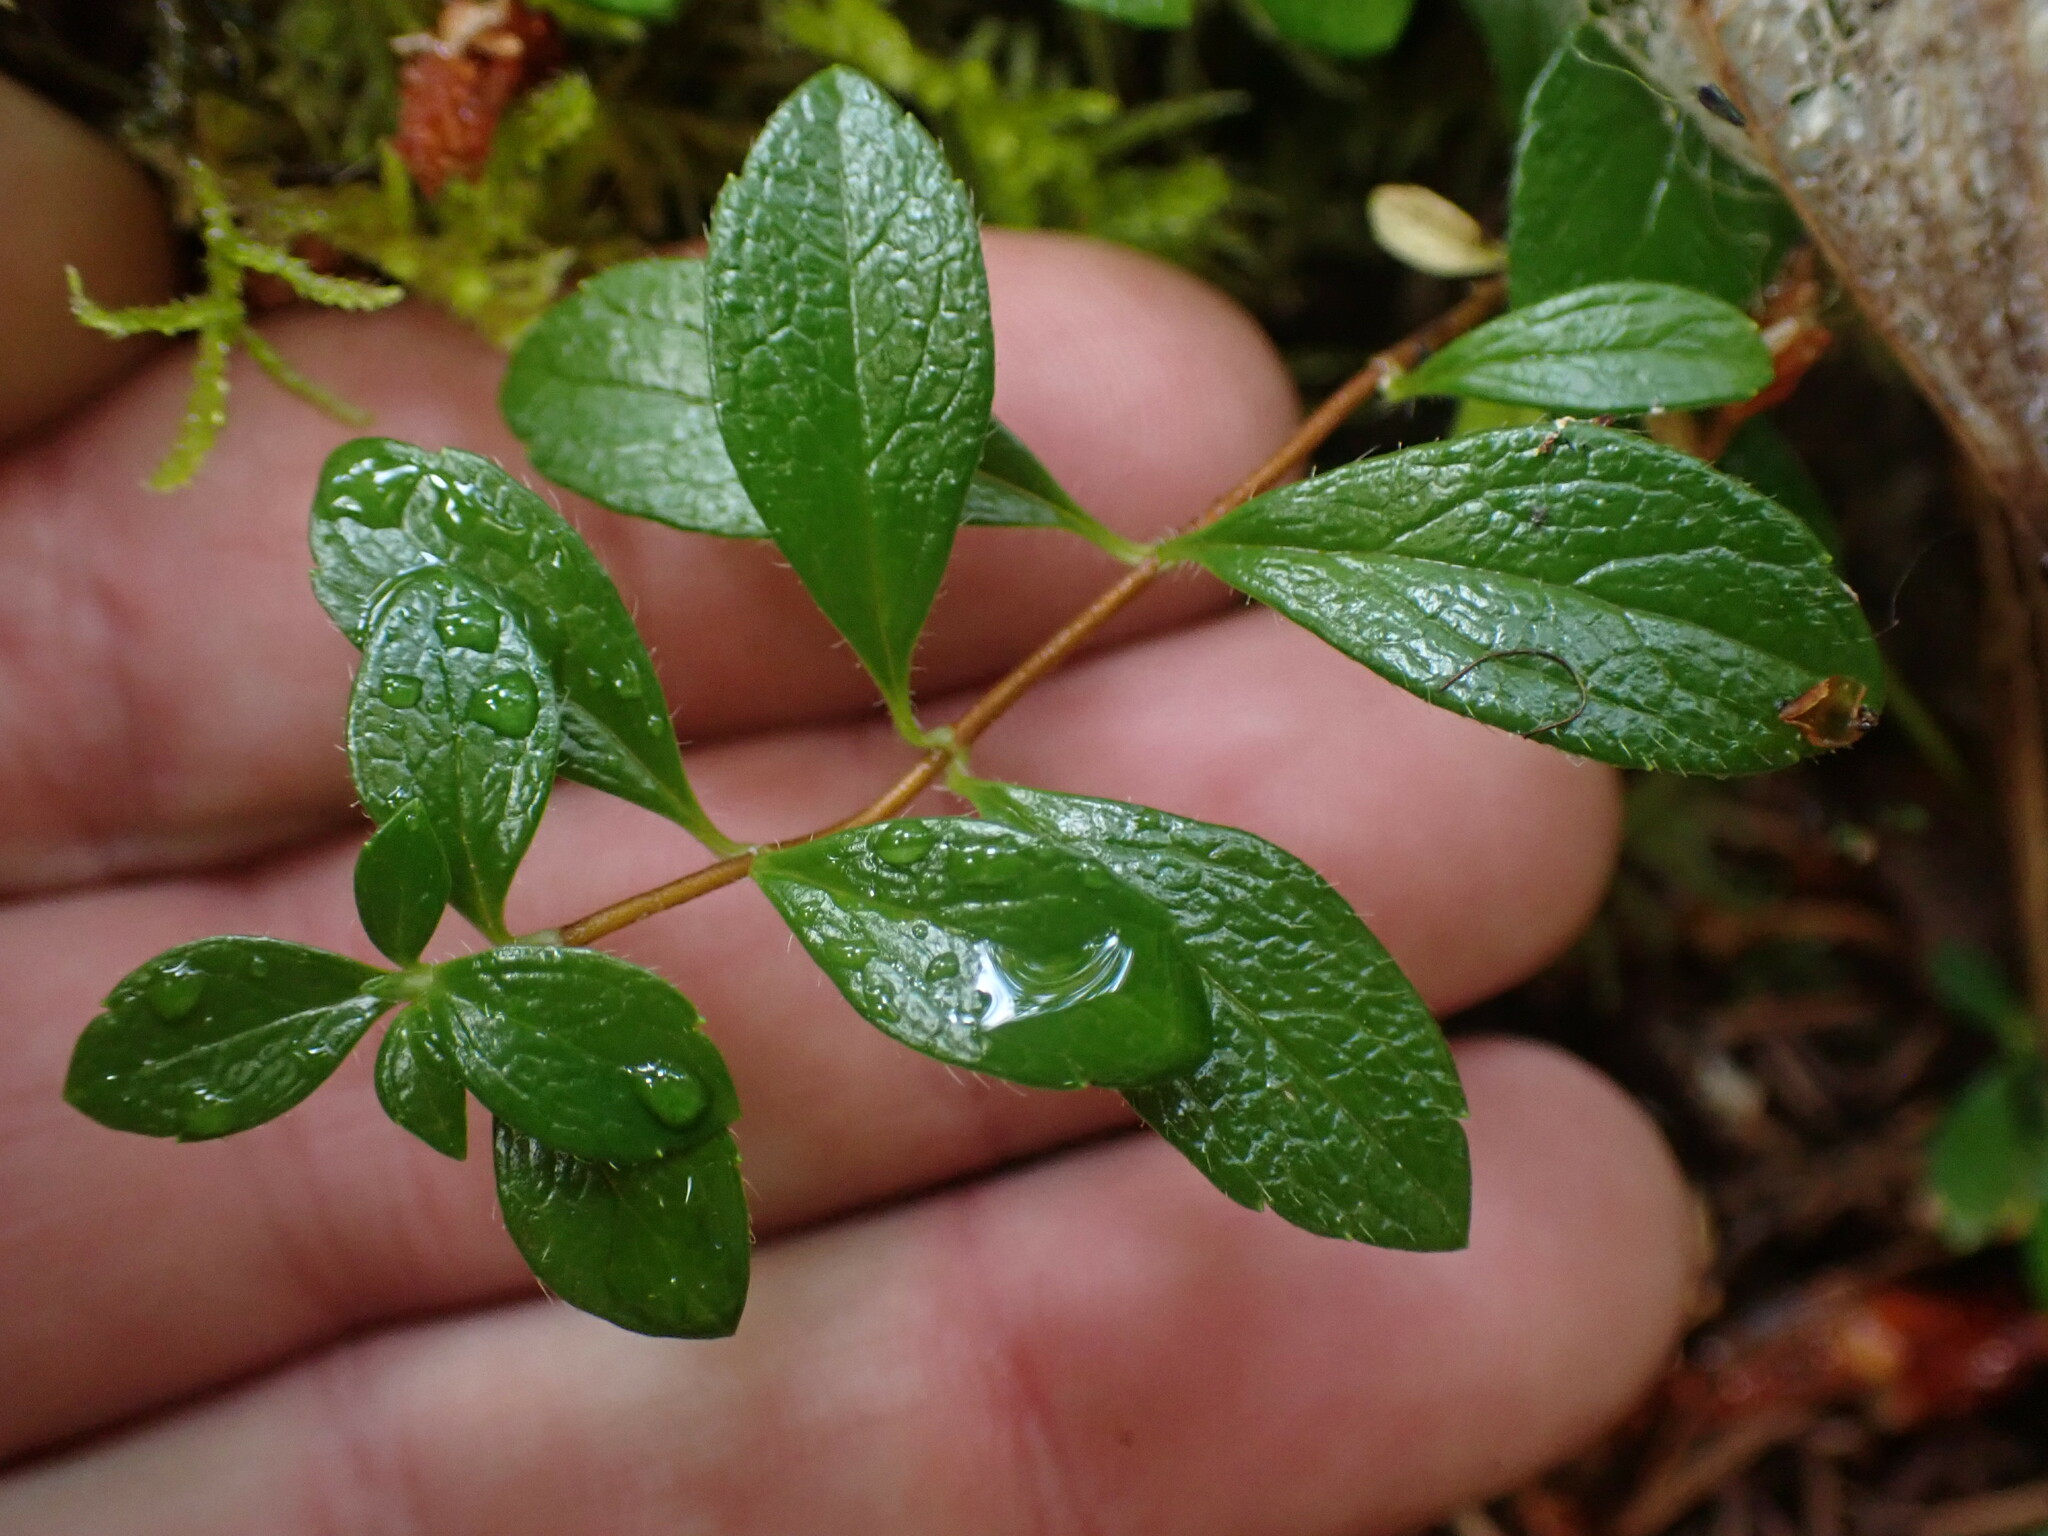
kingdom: Plantae
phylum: Tracheophyta
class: Magnoliopsida
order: Dipsacales
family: Caprifoliaceae
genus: Linnaea
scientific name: Linnaea borealis
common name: Twinflower
